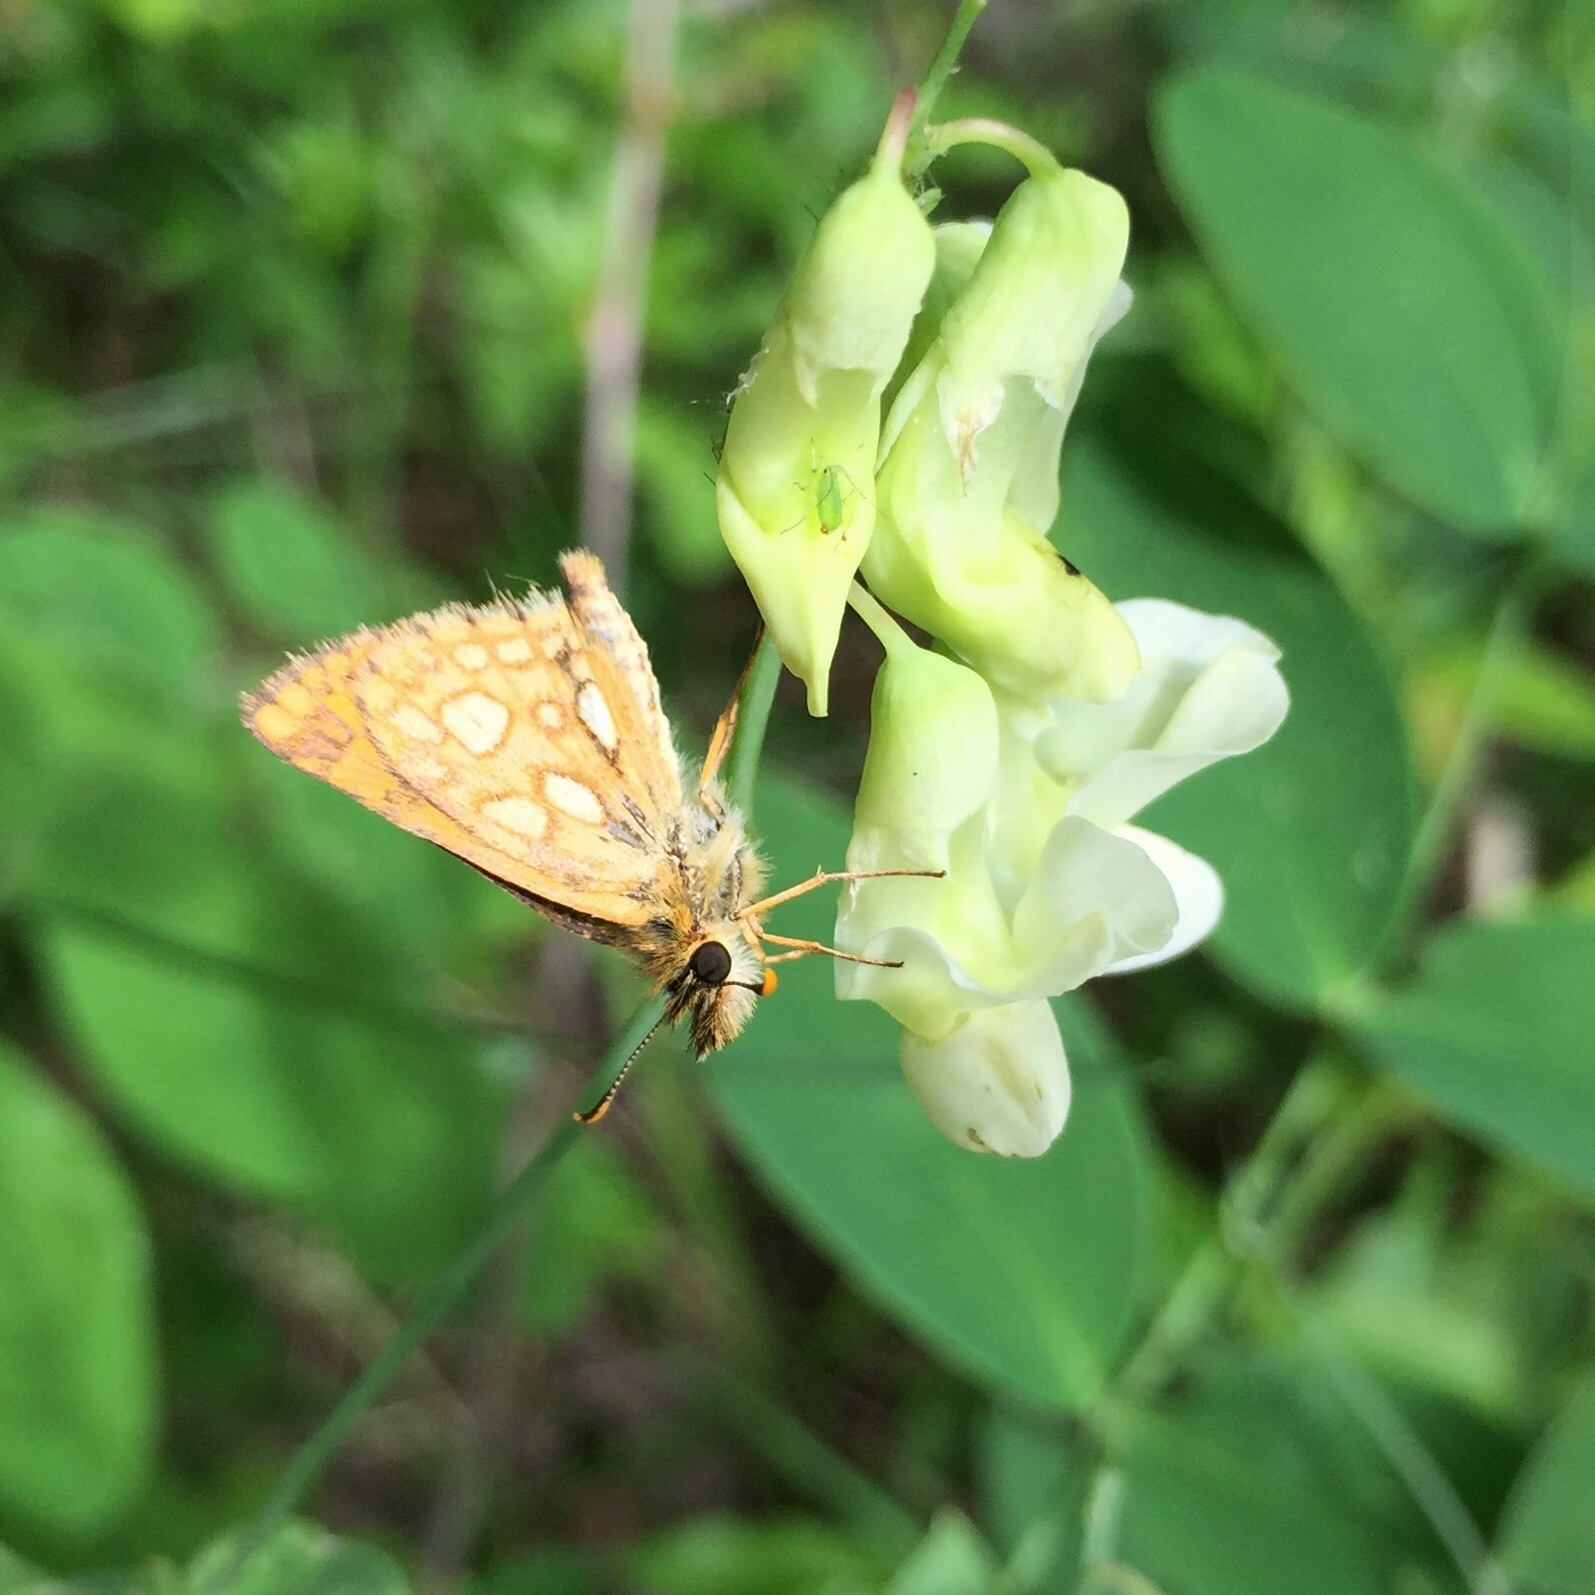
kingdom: Animalia
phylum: Arthropoda
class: Insecta
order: Lepidoptera
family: Hesperiidae
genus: Carterocephalus
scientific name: Carterocephalus mandan
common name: Arctic skipperling
